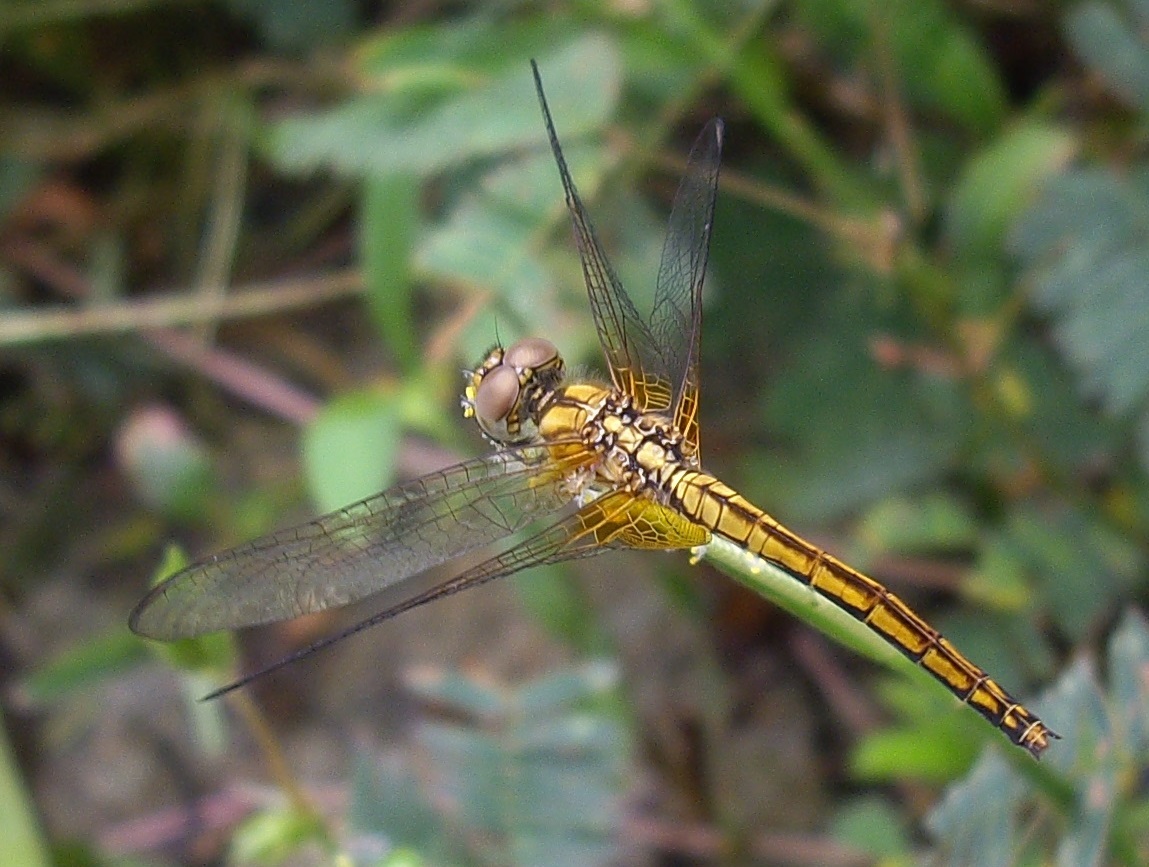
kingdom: Animalia
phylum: Arthropoda
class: Insecta
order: Odonata
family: Libellulidae
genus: Trithemis
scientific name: Trithemis aurora
